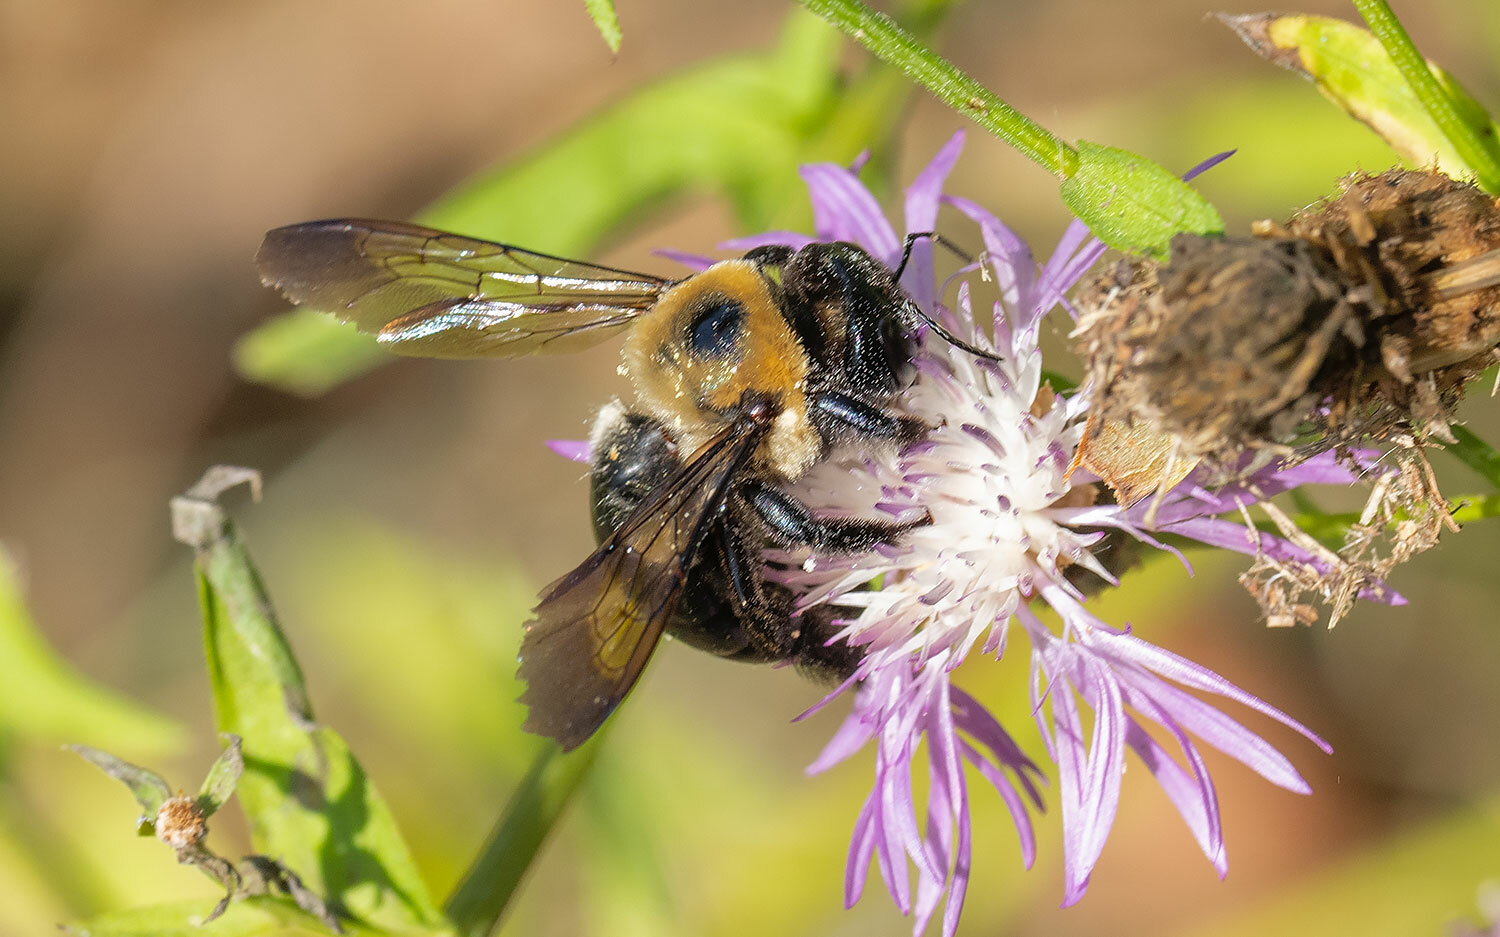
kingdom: Animalia
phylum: Arthropoda
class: Insecta
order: Hymenoptera
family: Apidae
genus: Xylocopa
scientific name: Xylocopa virginica
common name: Carpenter bee
